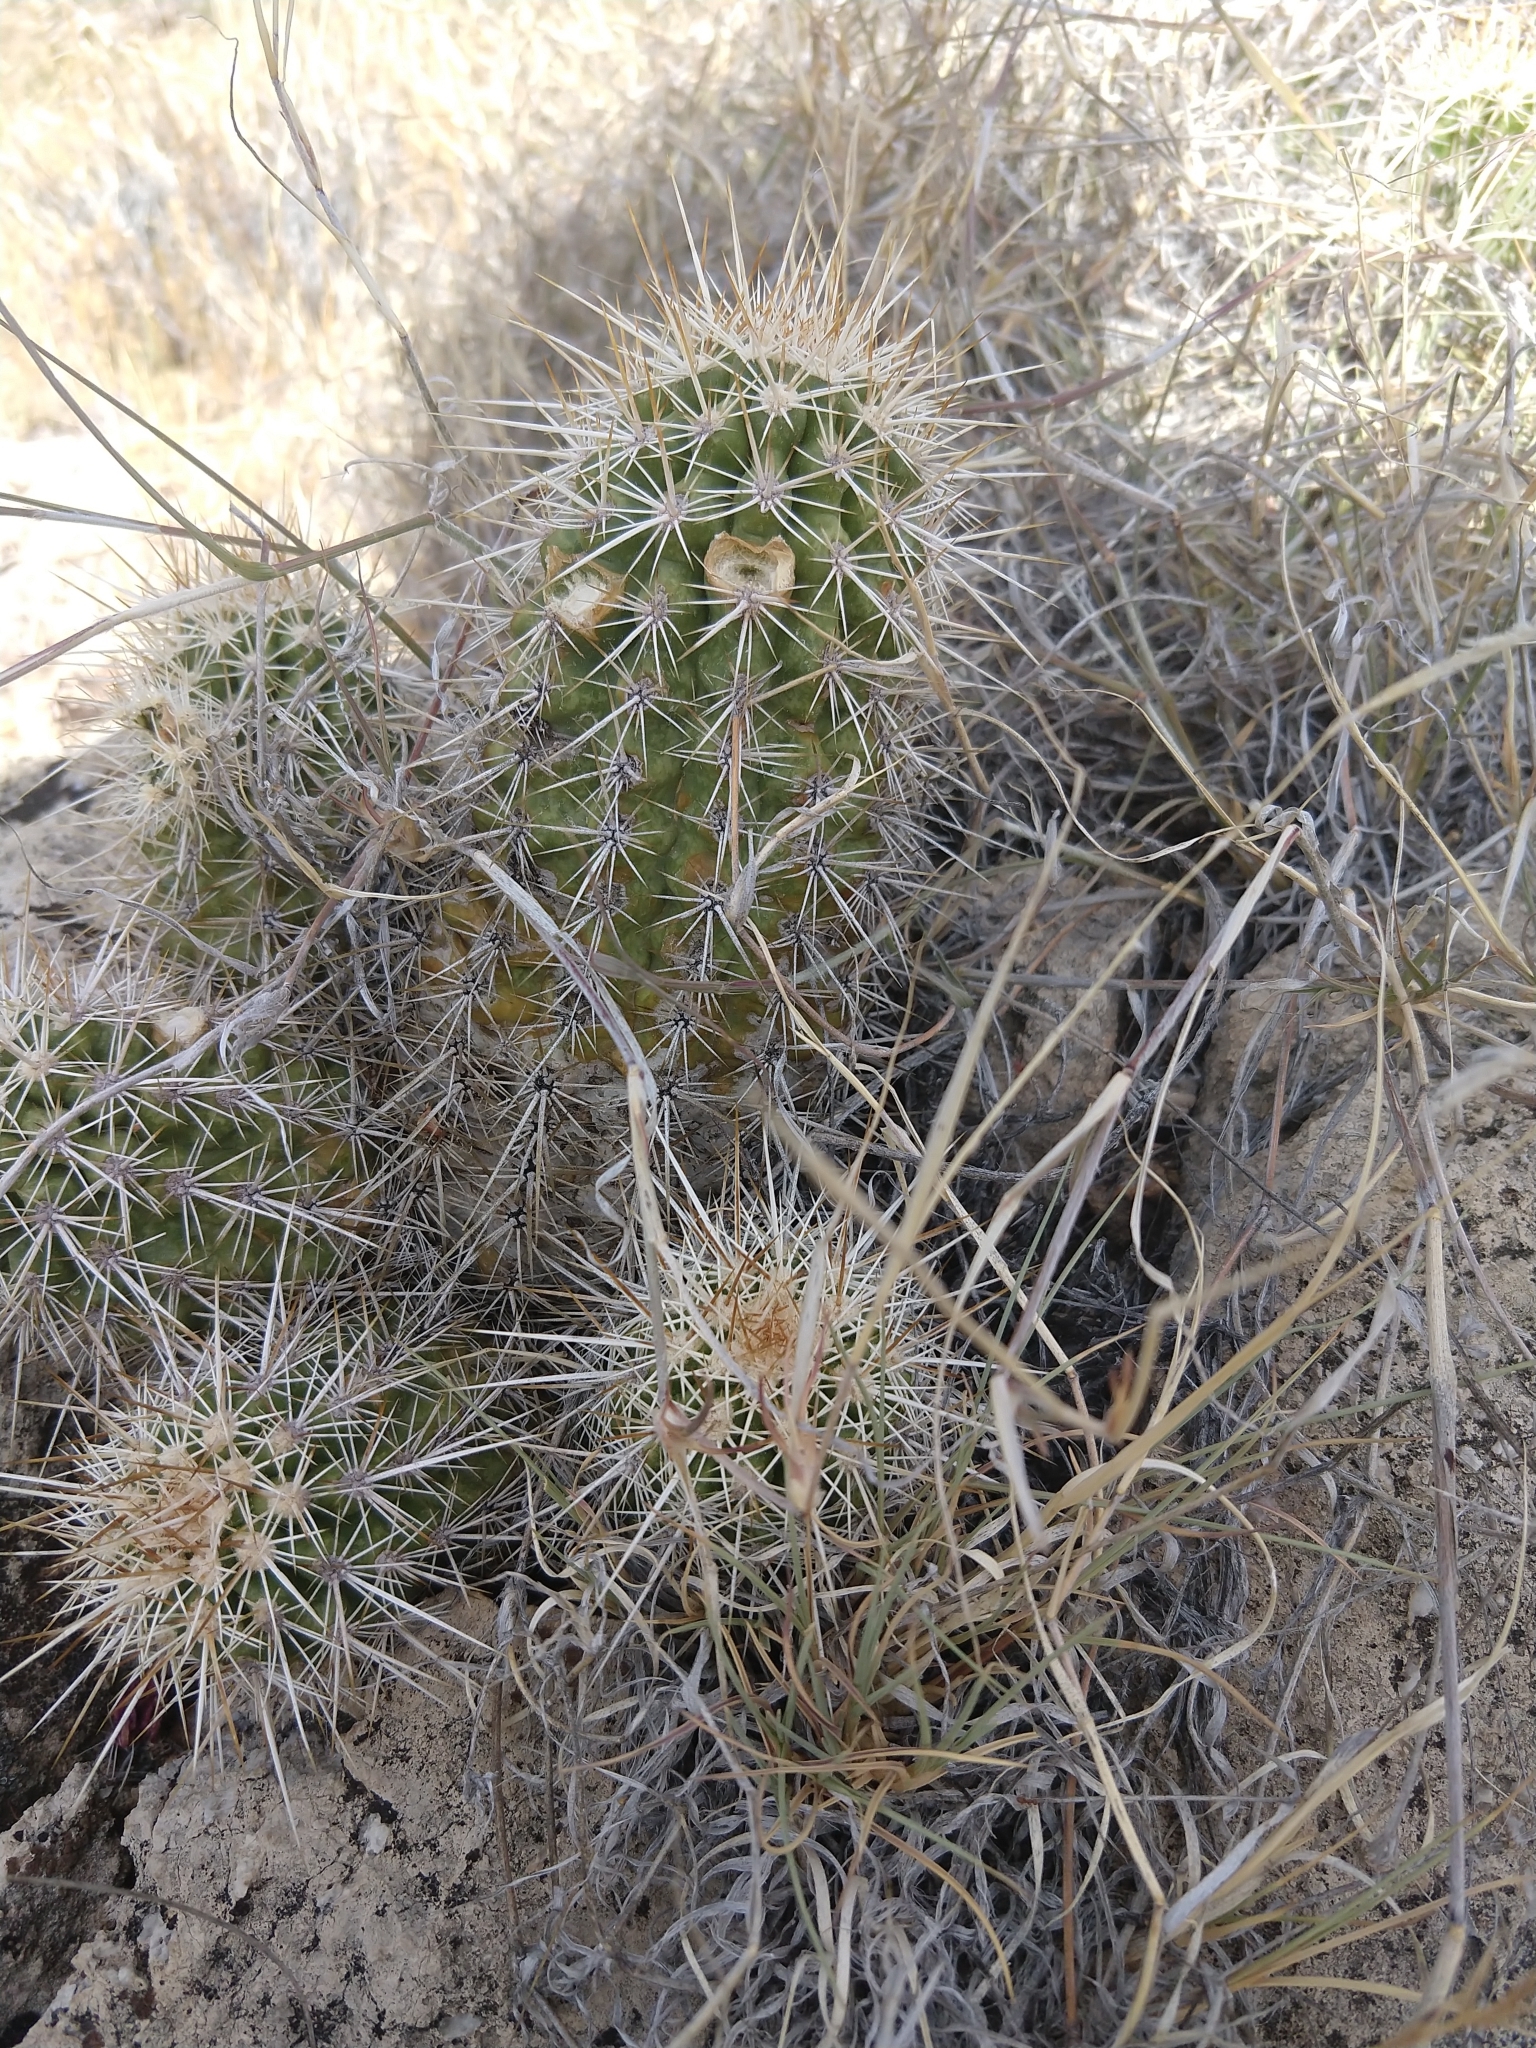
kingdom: Plantae
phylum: Tracheophyta
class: Magnoliopsida
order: Caryophyllales
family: Cactaceae
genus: Echinocereus
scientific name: Echinocereus engelmannii
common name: Engelmann's hedgehog cactus
